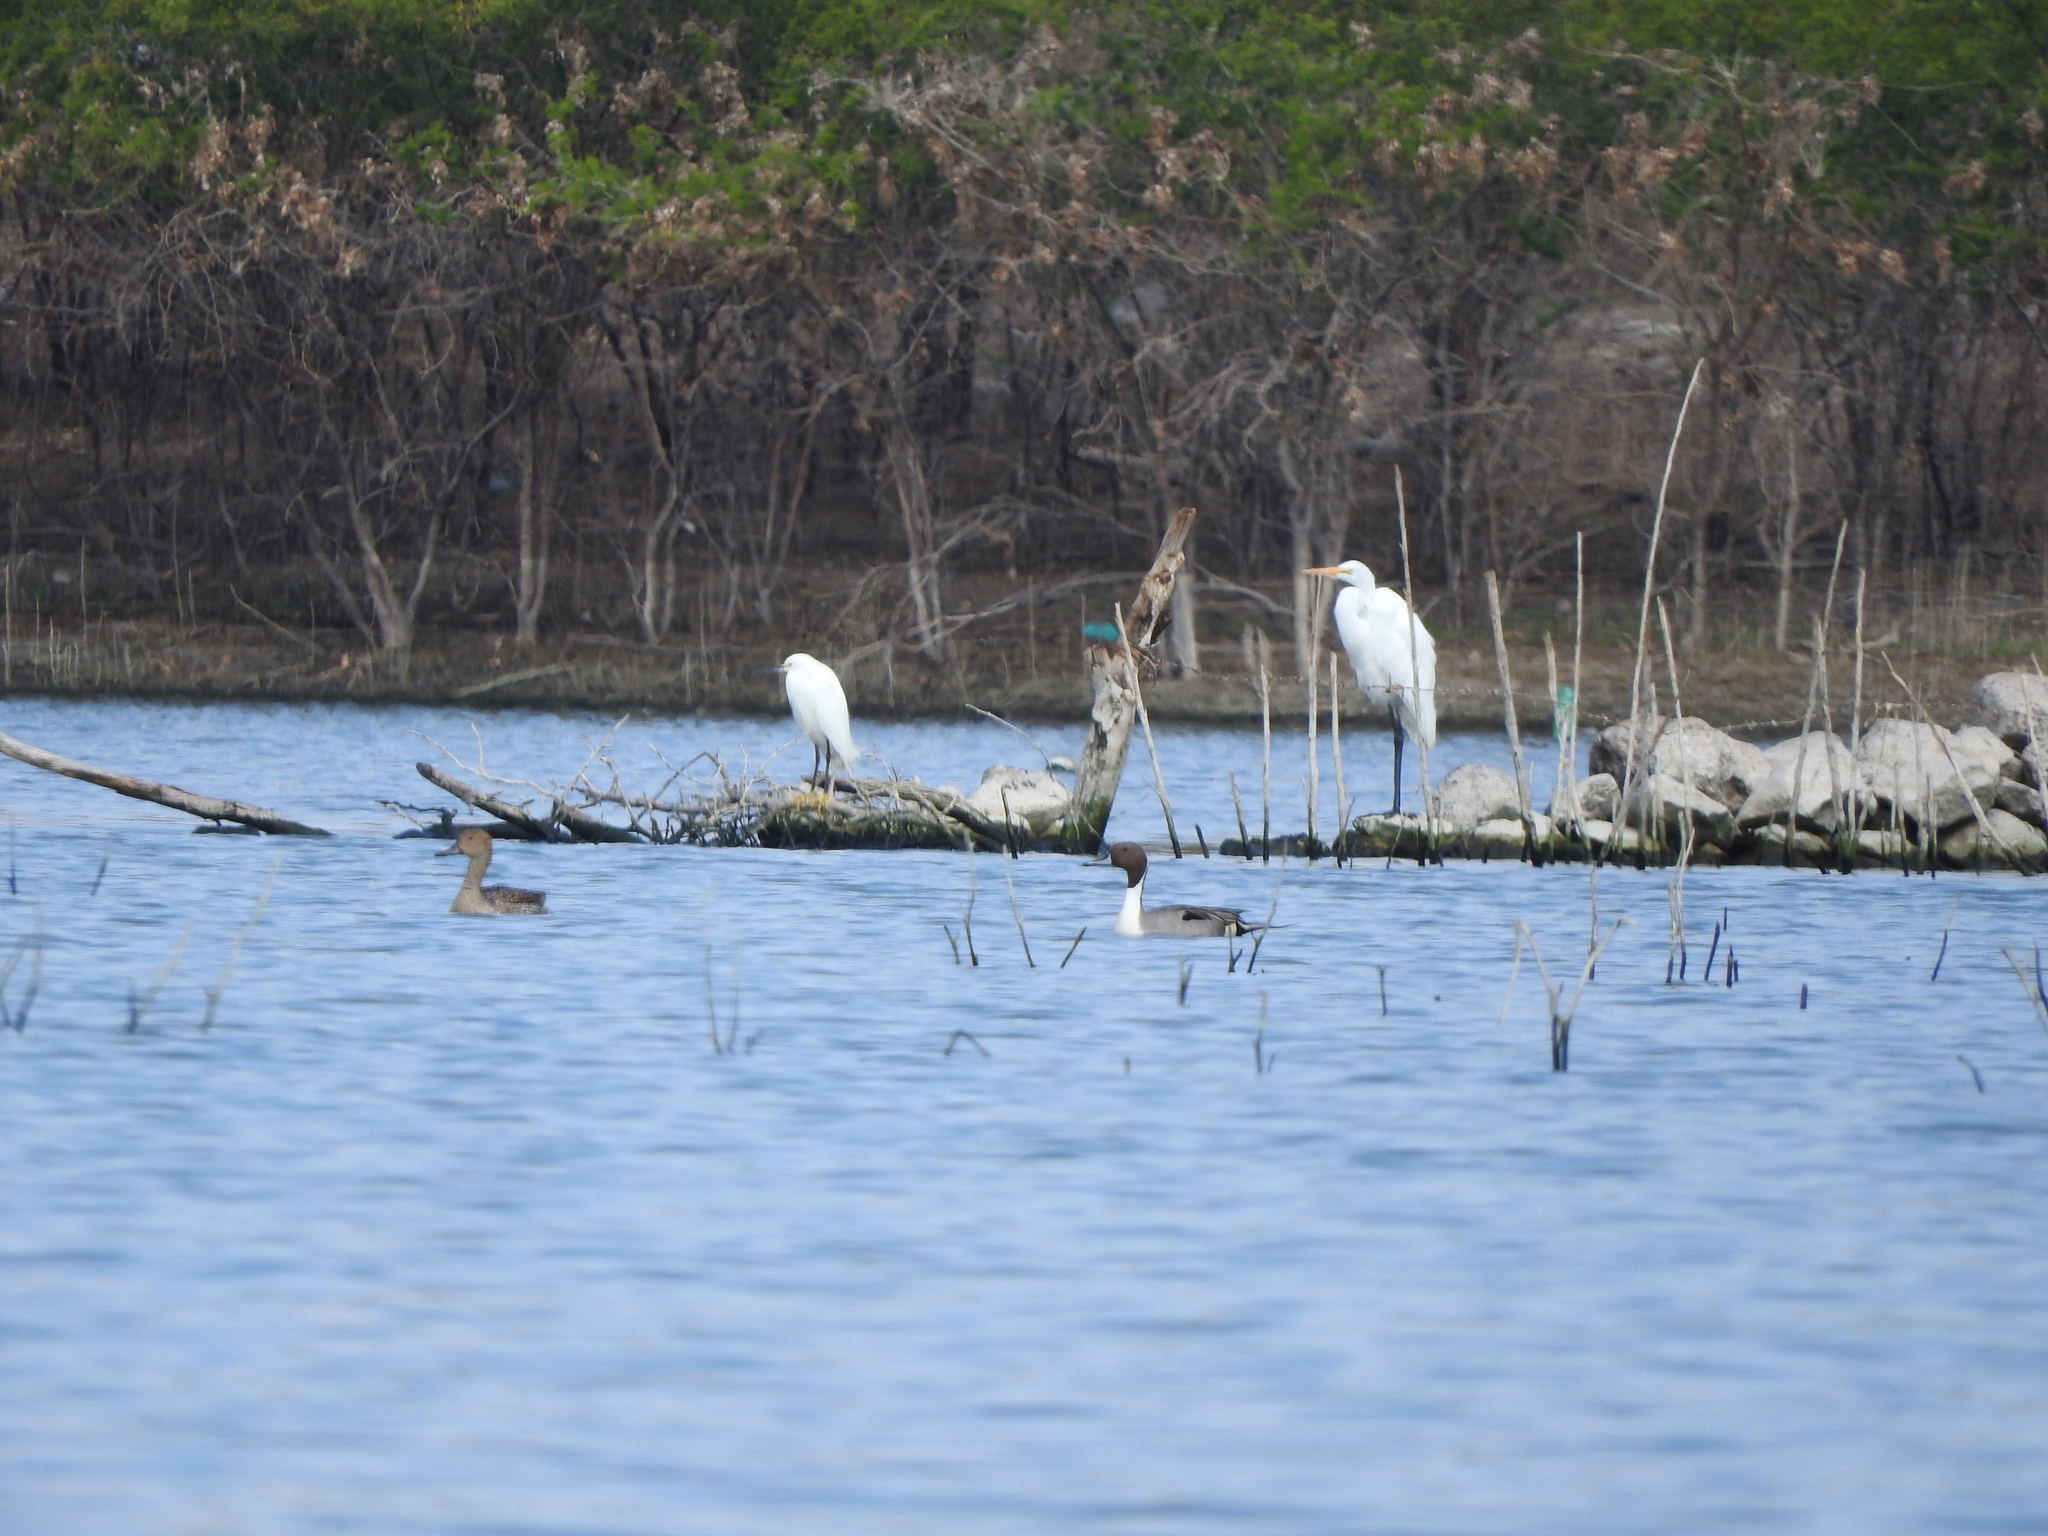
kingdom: Animalia
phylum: Chordata
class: Aves
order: Pelecaniformes
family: Ardeidae
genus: Ardea
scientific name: Ardea alba
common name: Great egret
